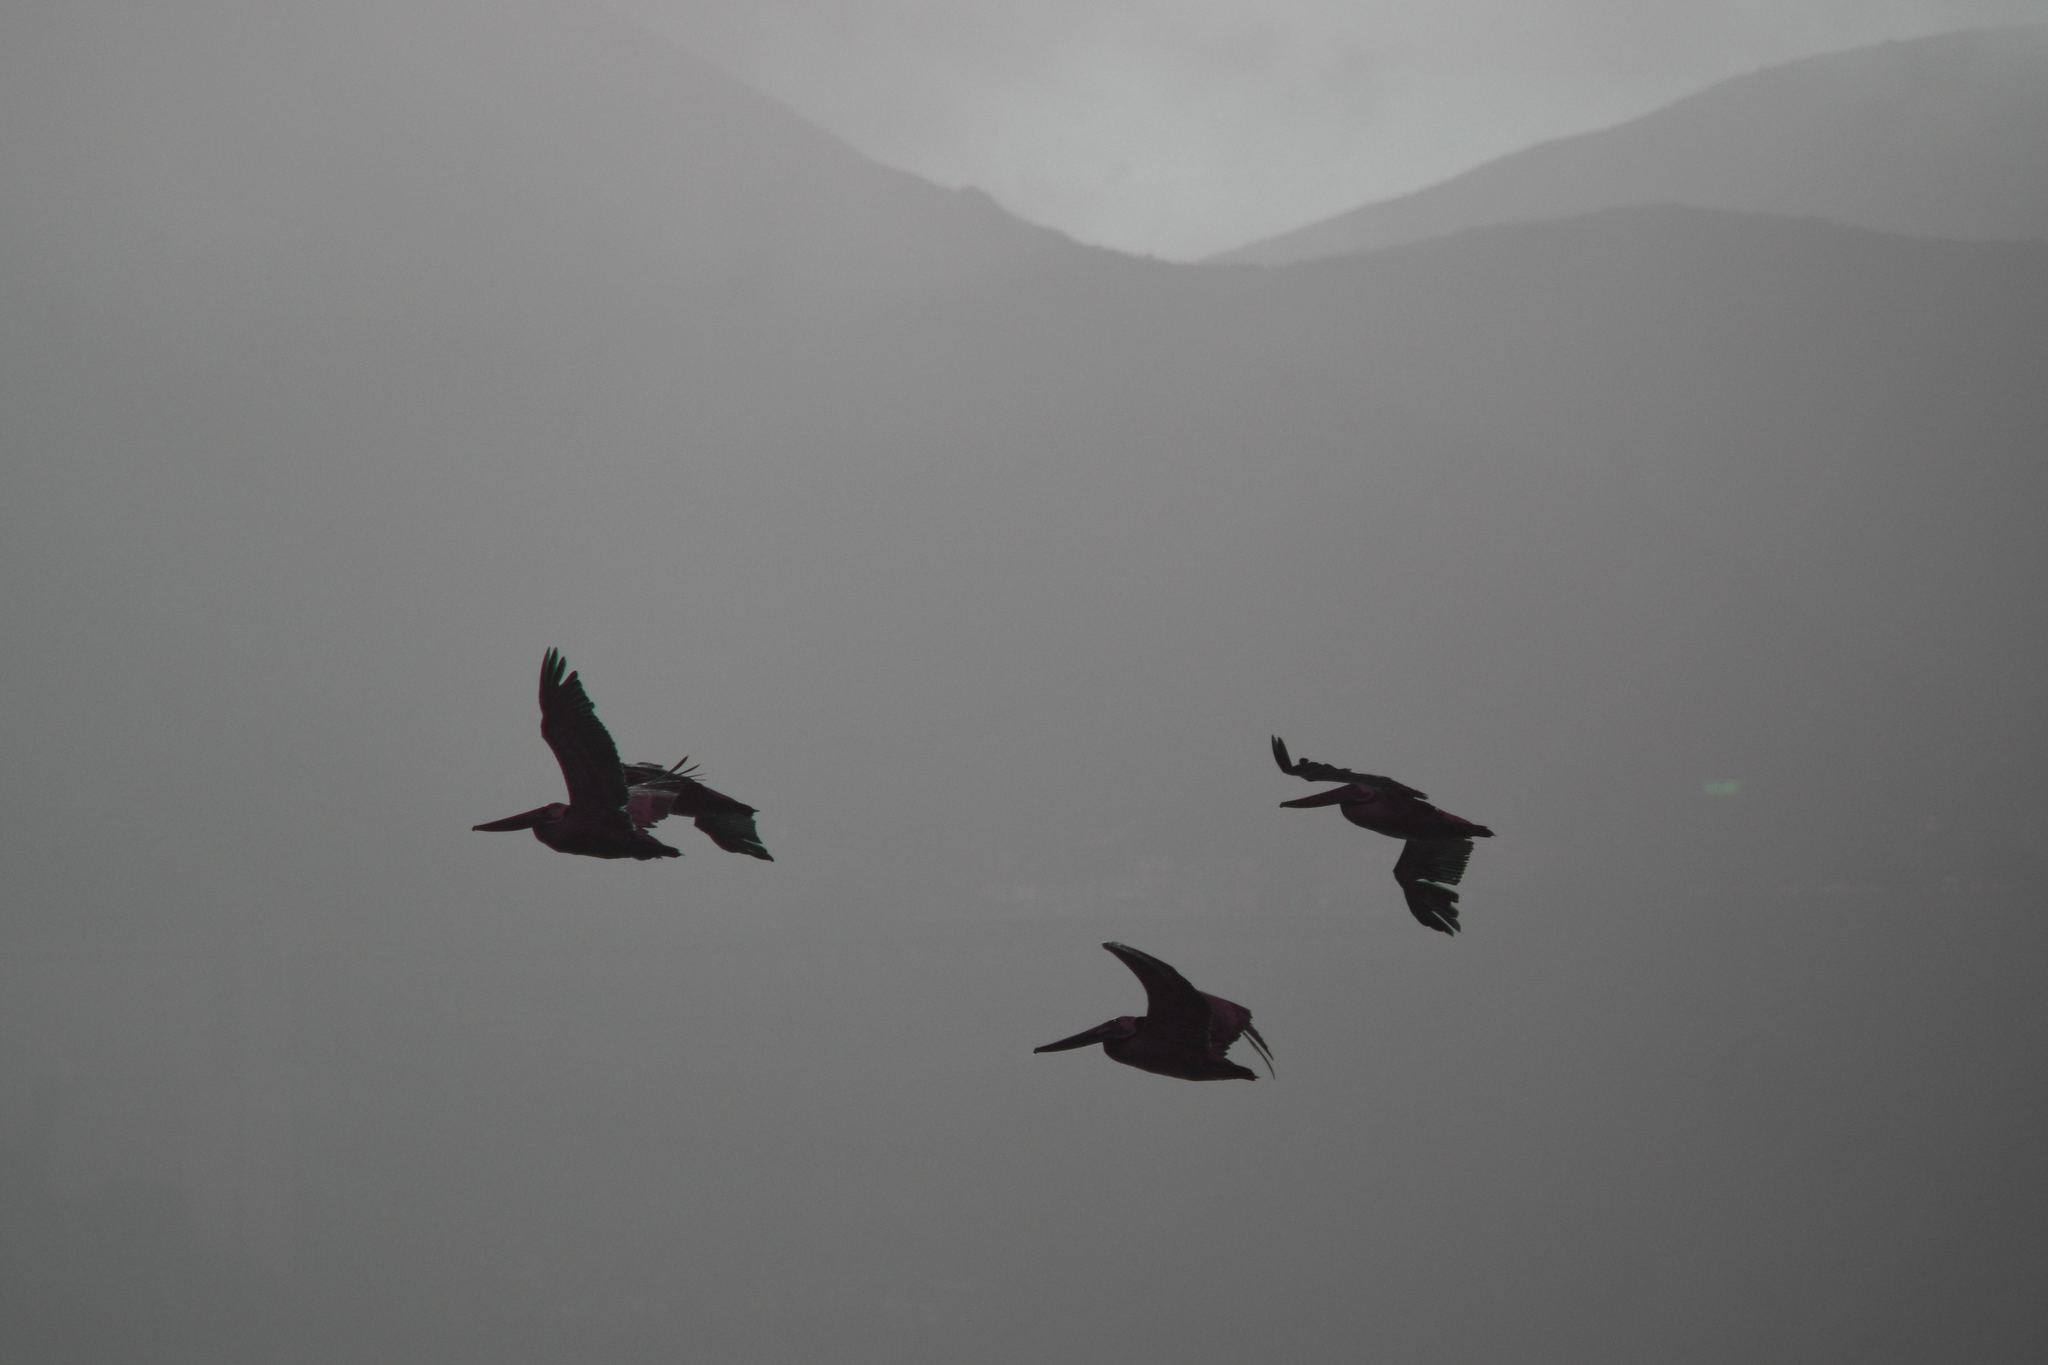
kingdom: Animalia
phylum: Chordata
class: Aves
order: Pelecaniformes
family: Pelecanidae
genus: Pelecanus
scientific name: Pelecanus occidentalis
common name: Brown pelican
